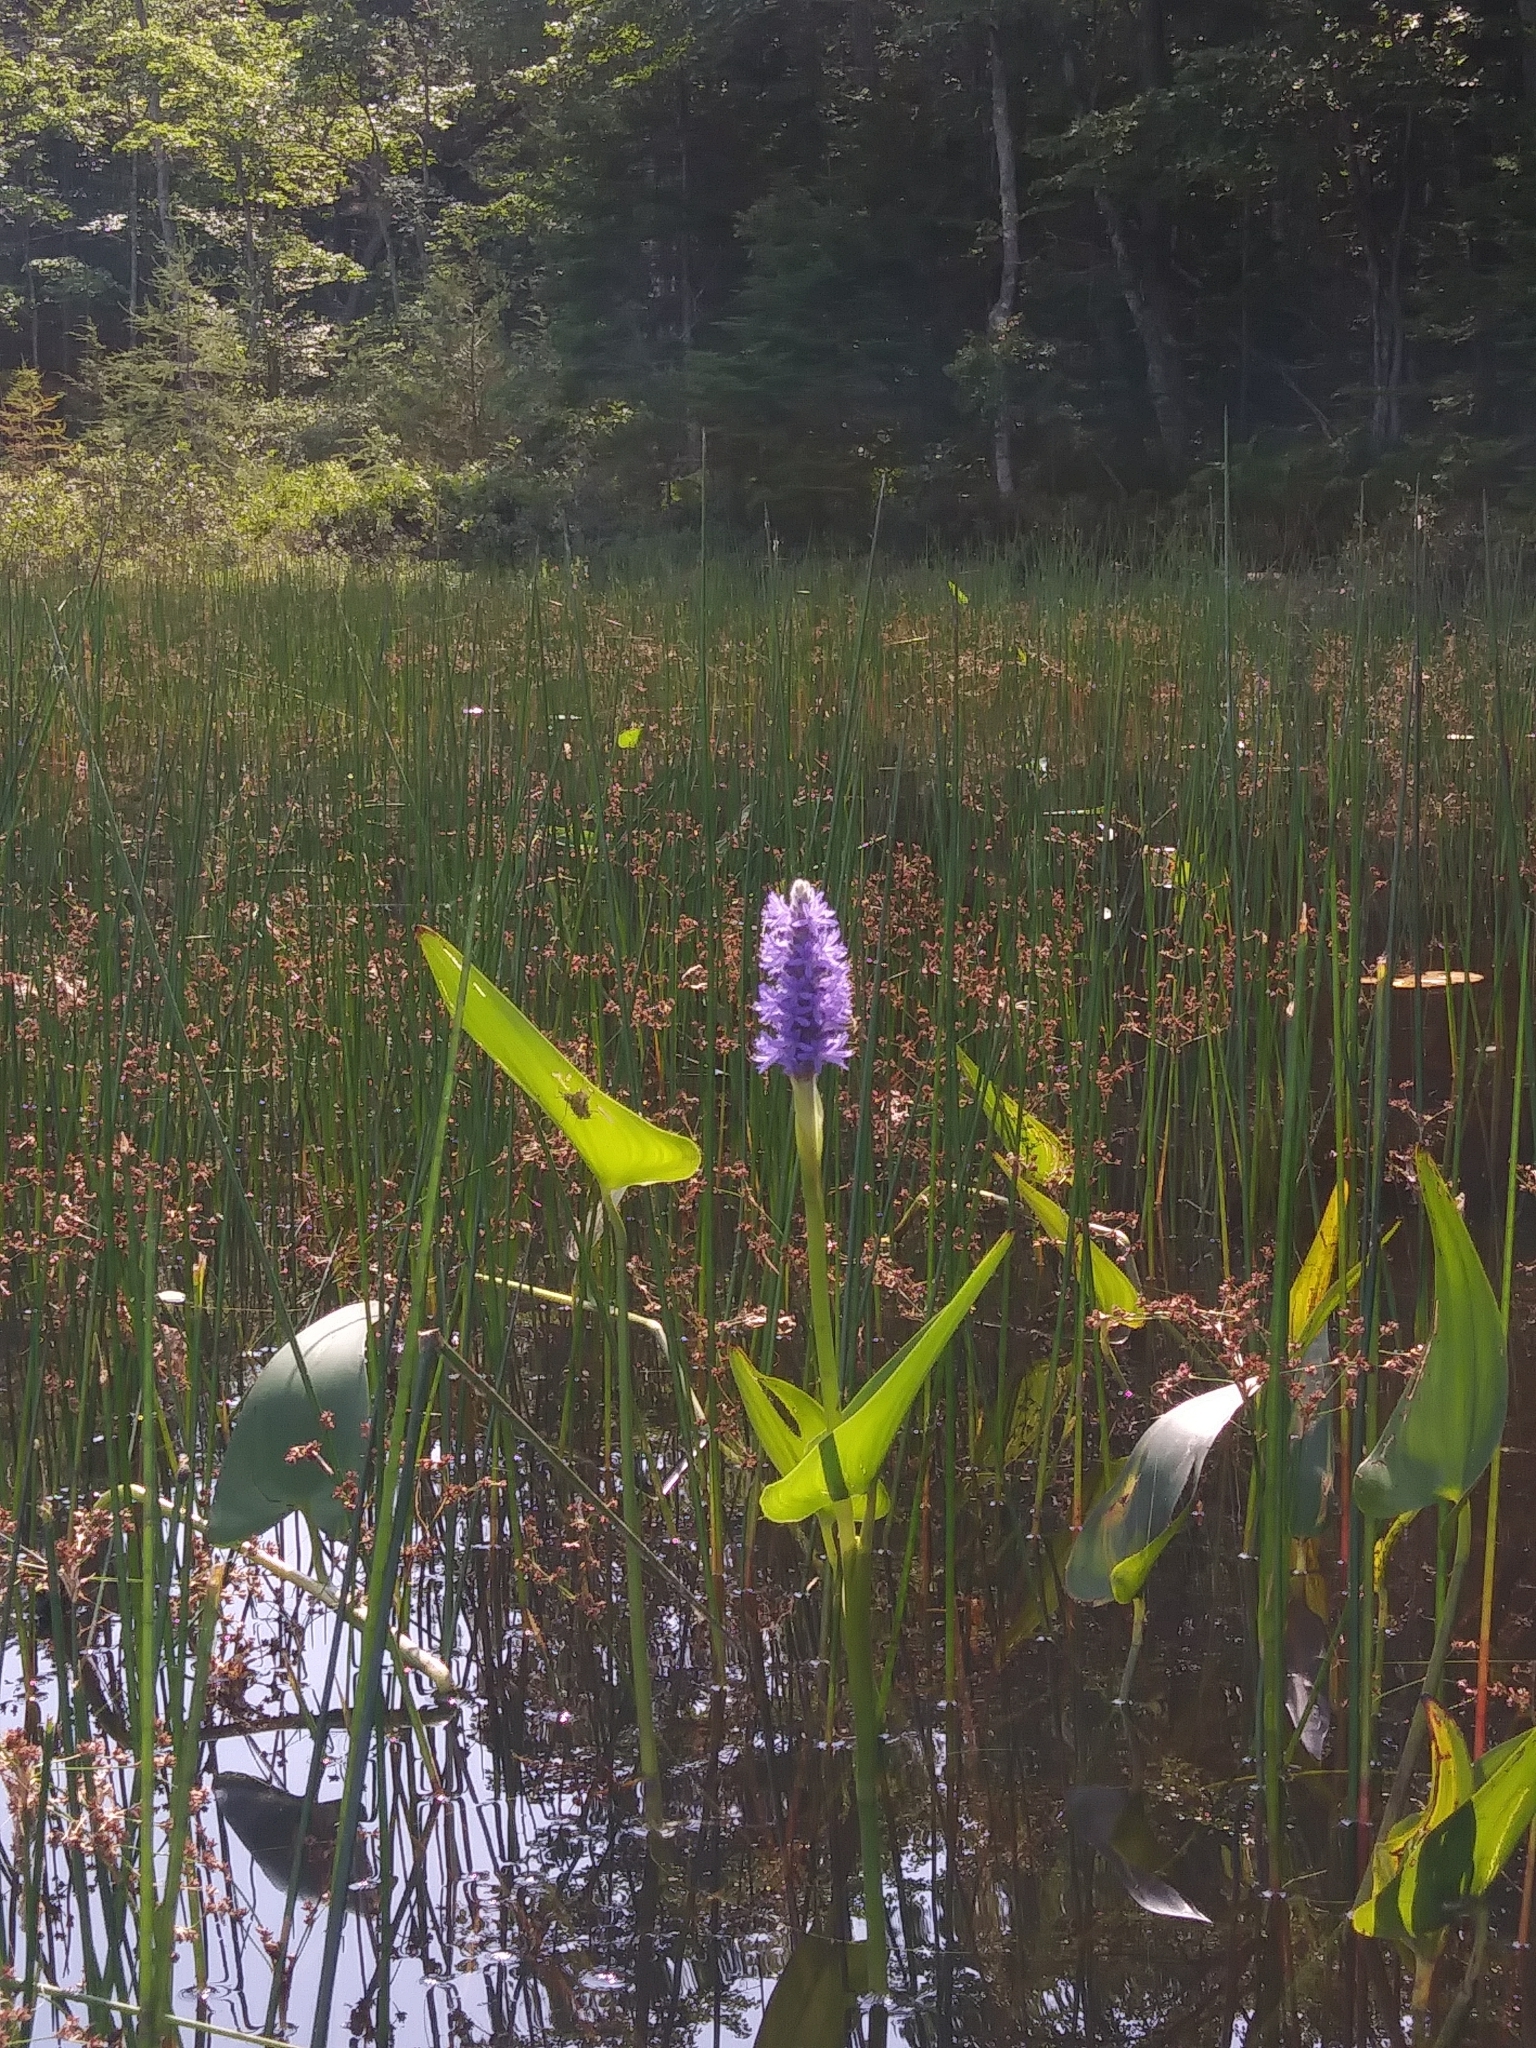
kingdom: Plantae
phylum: Tracheophyta
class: Liliopsida
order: Commelinales
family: Pontederiaceae
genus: Pontederia
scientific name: Pontederia cordata
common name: Pickerelweed
